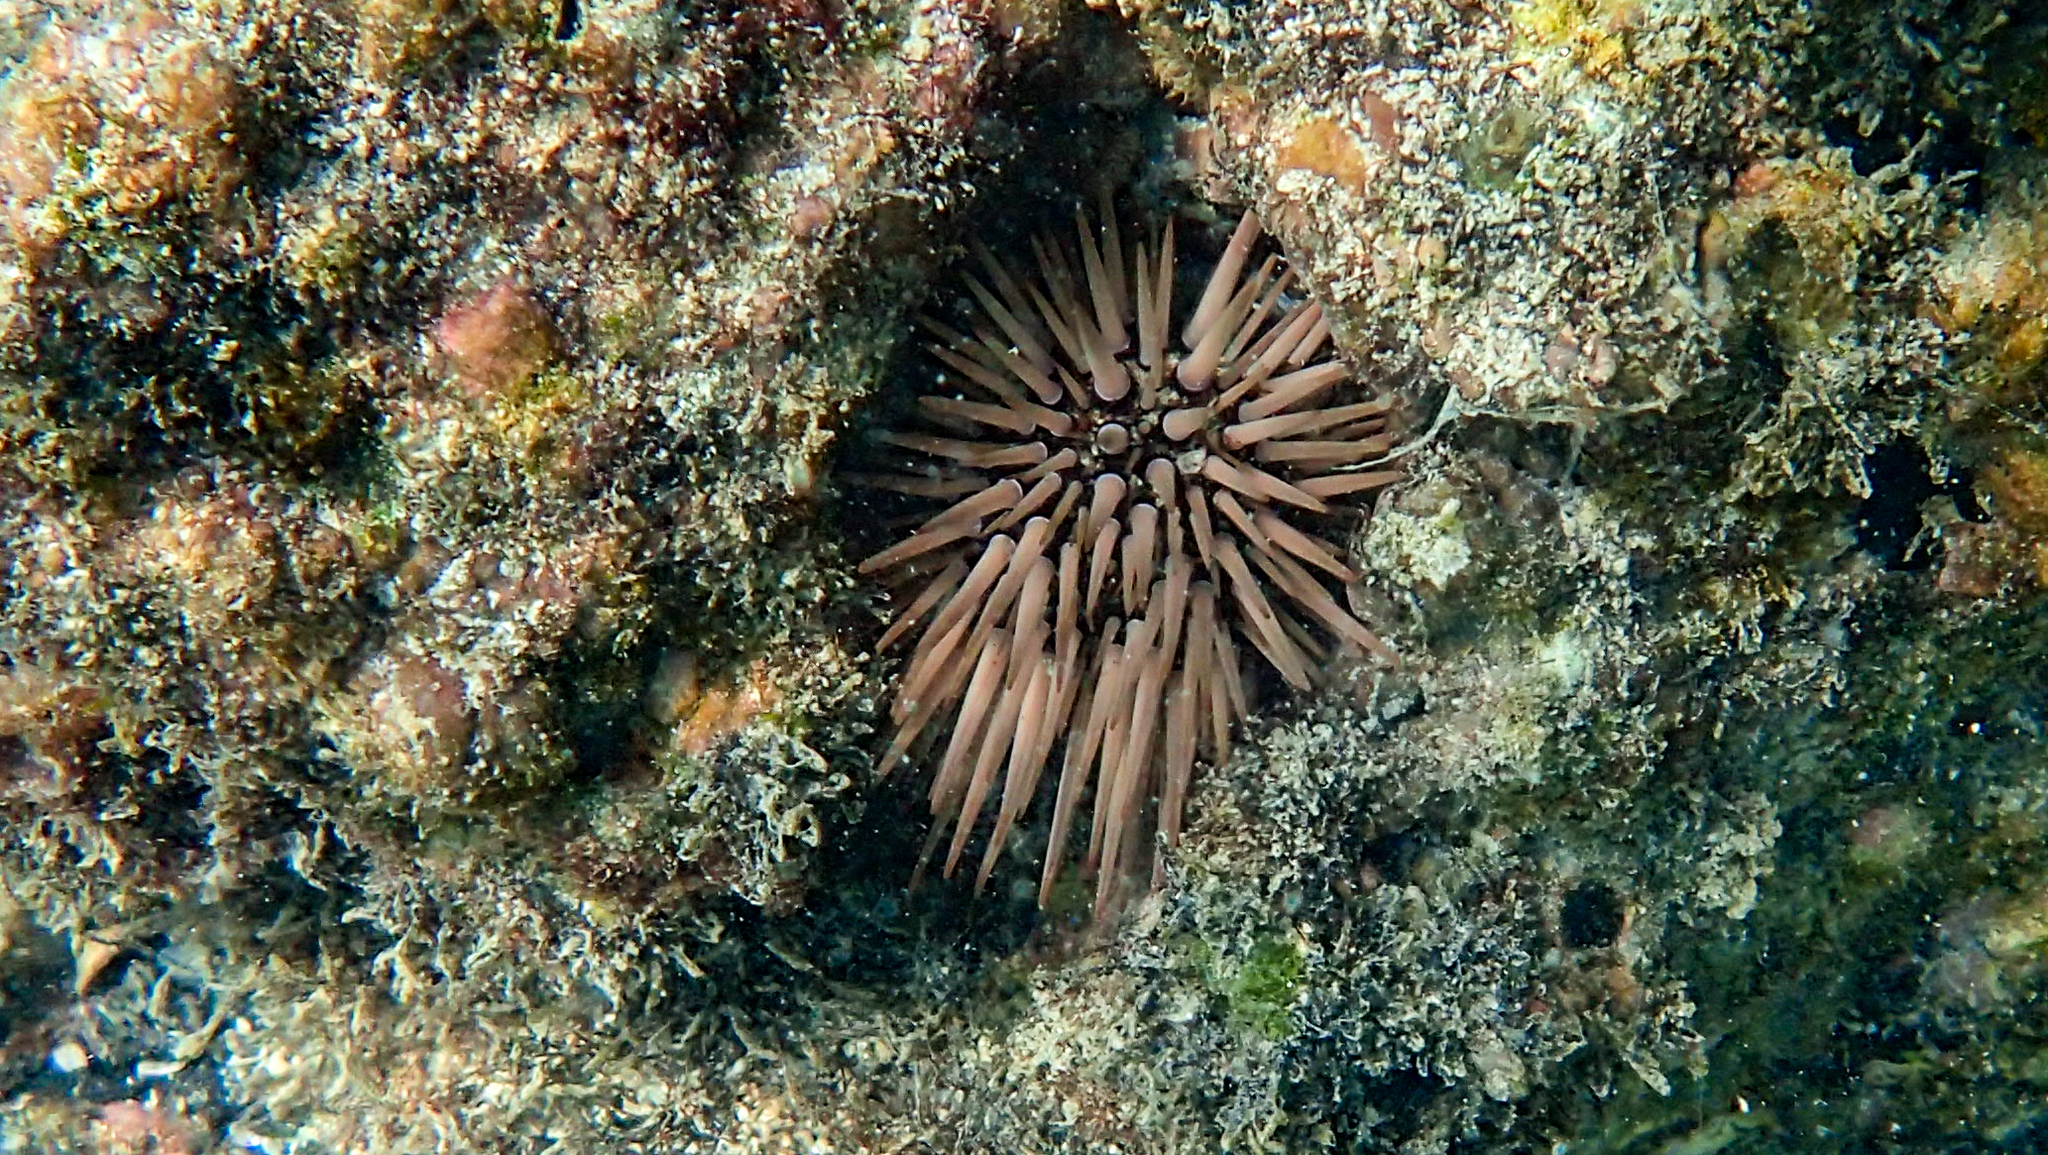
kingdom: Animalia
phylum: Echinodermata
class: Echinoidea
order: Camarodonta
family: Echinometridae
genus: Echinometra
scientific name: Echinometra mathaei
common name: Rock-boring urchin
